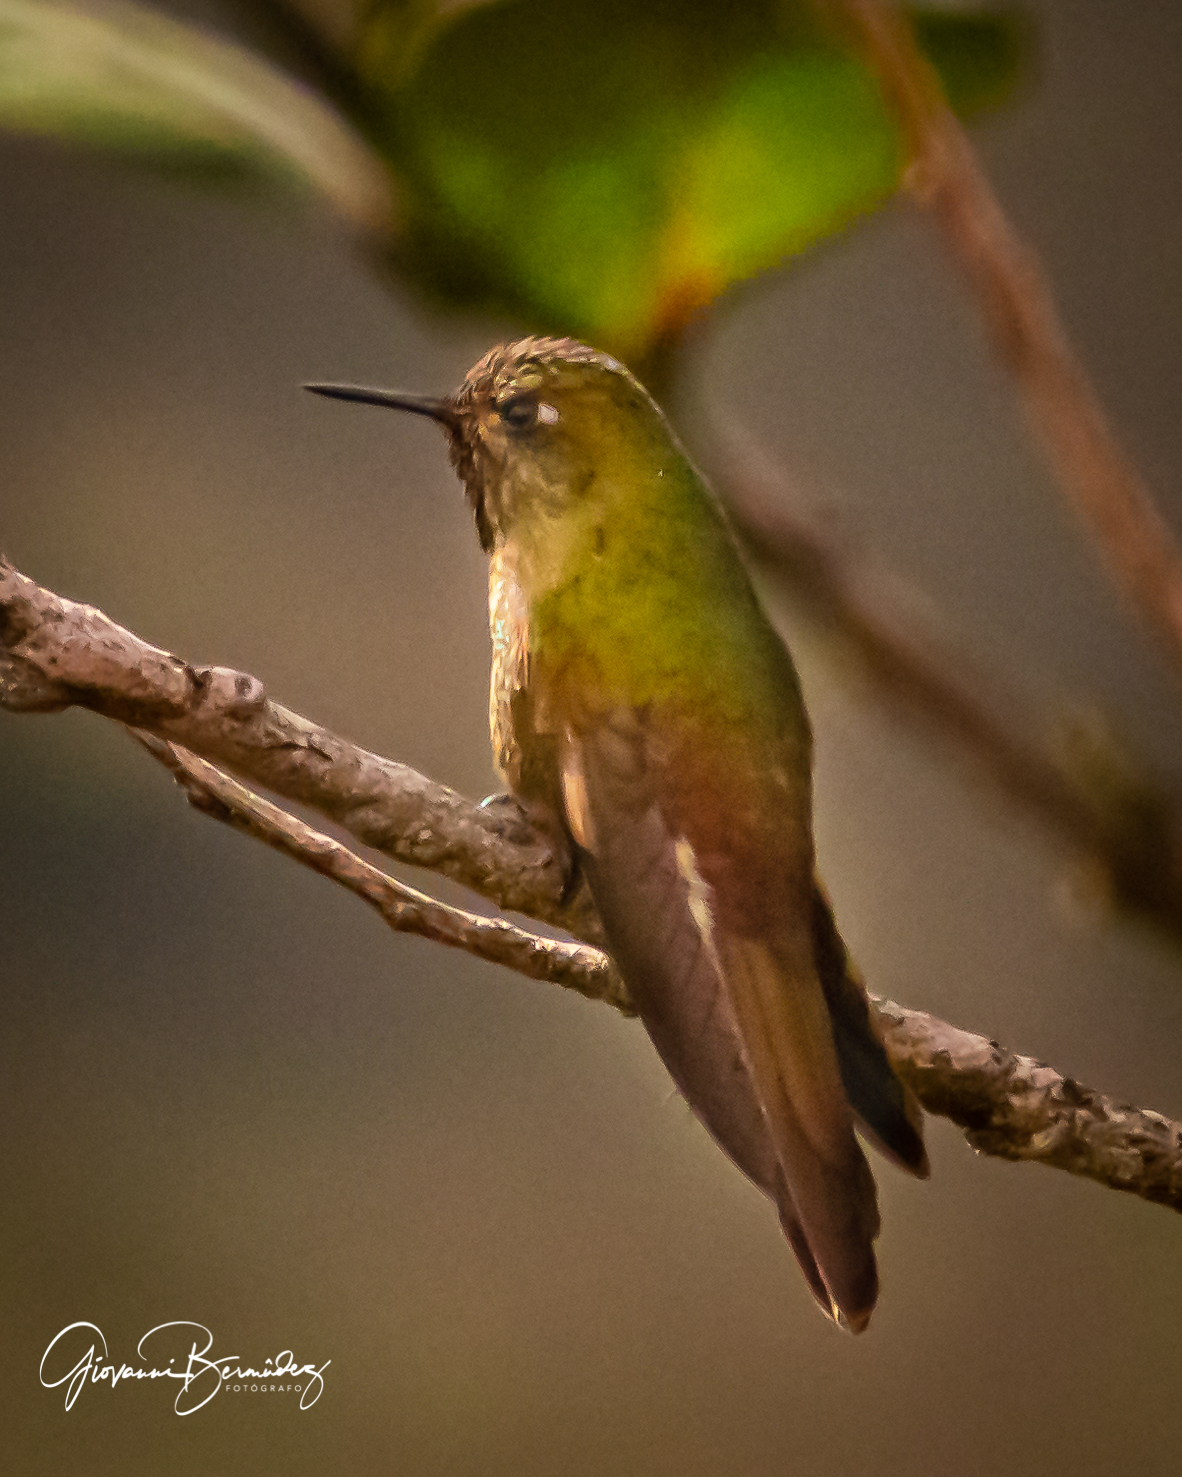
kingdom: Animalia
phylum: Chordata
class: Aves
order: Apodiformes
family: Trochilidae
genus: Metallura
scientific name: Metallura tyrianthina
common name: Tyrian metaltail
